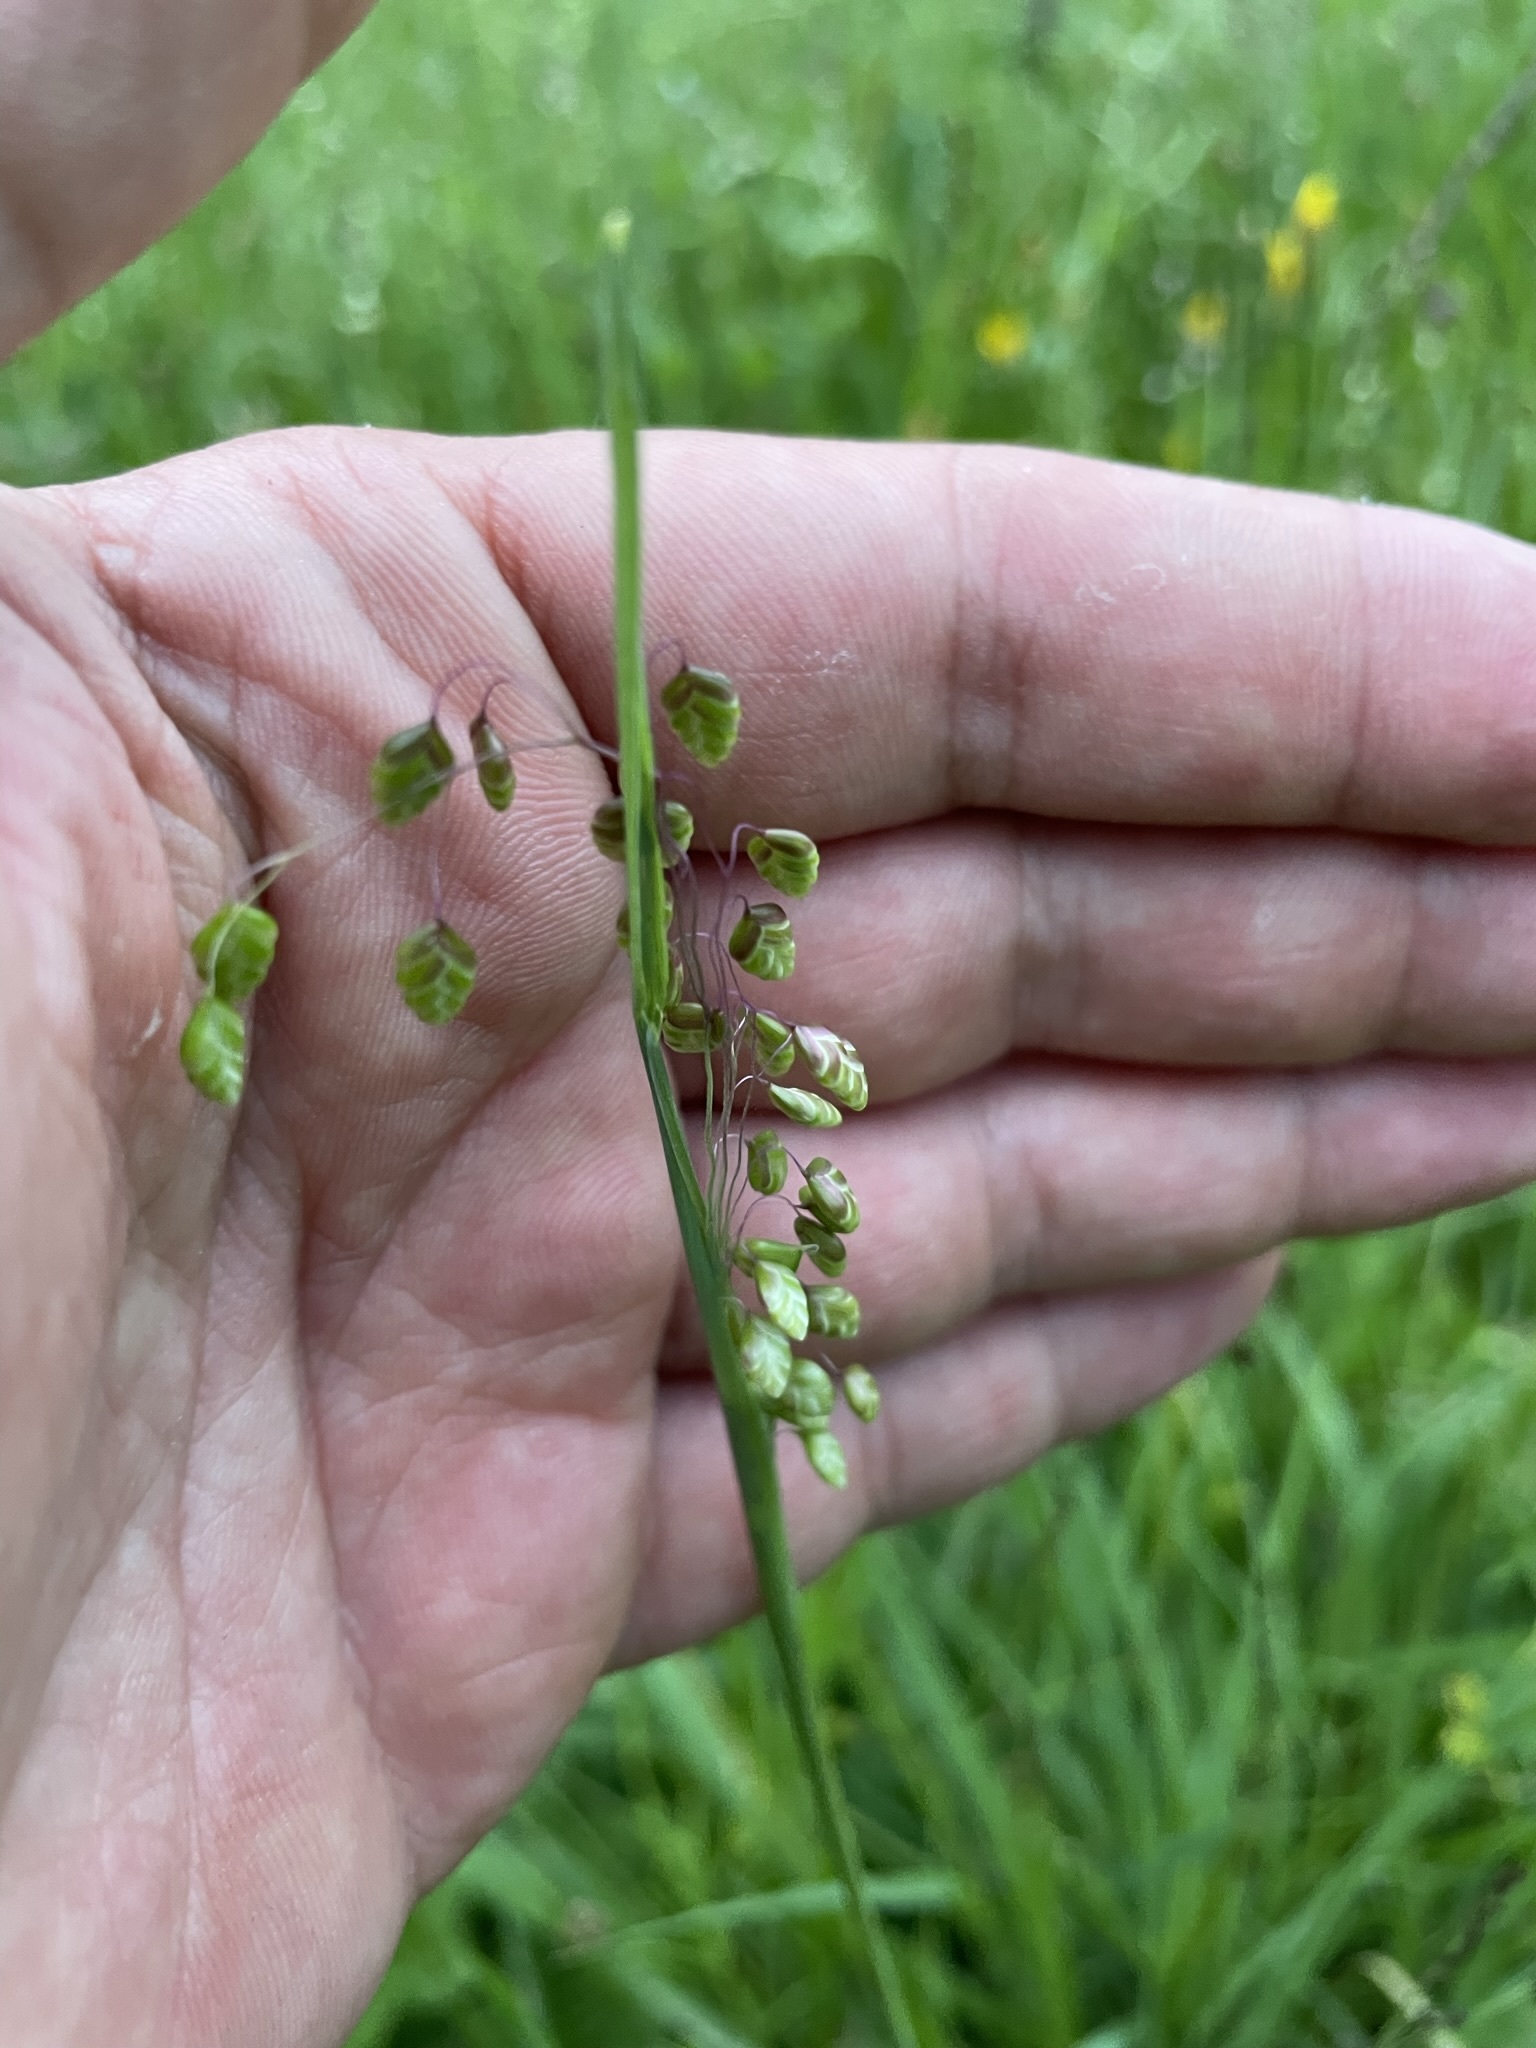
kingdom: Plantae
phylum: Tracheophyta
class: Liliopsida
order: Poales
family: Poaceae
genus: Briza
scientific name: Briza media
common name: Quaking grass
